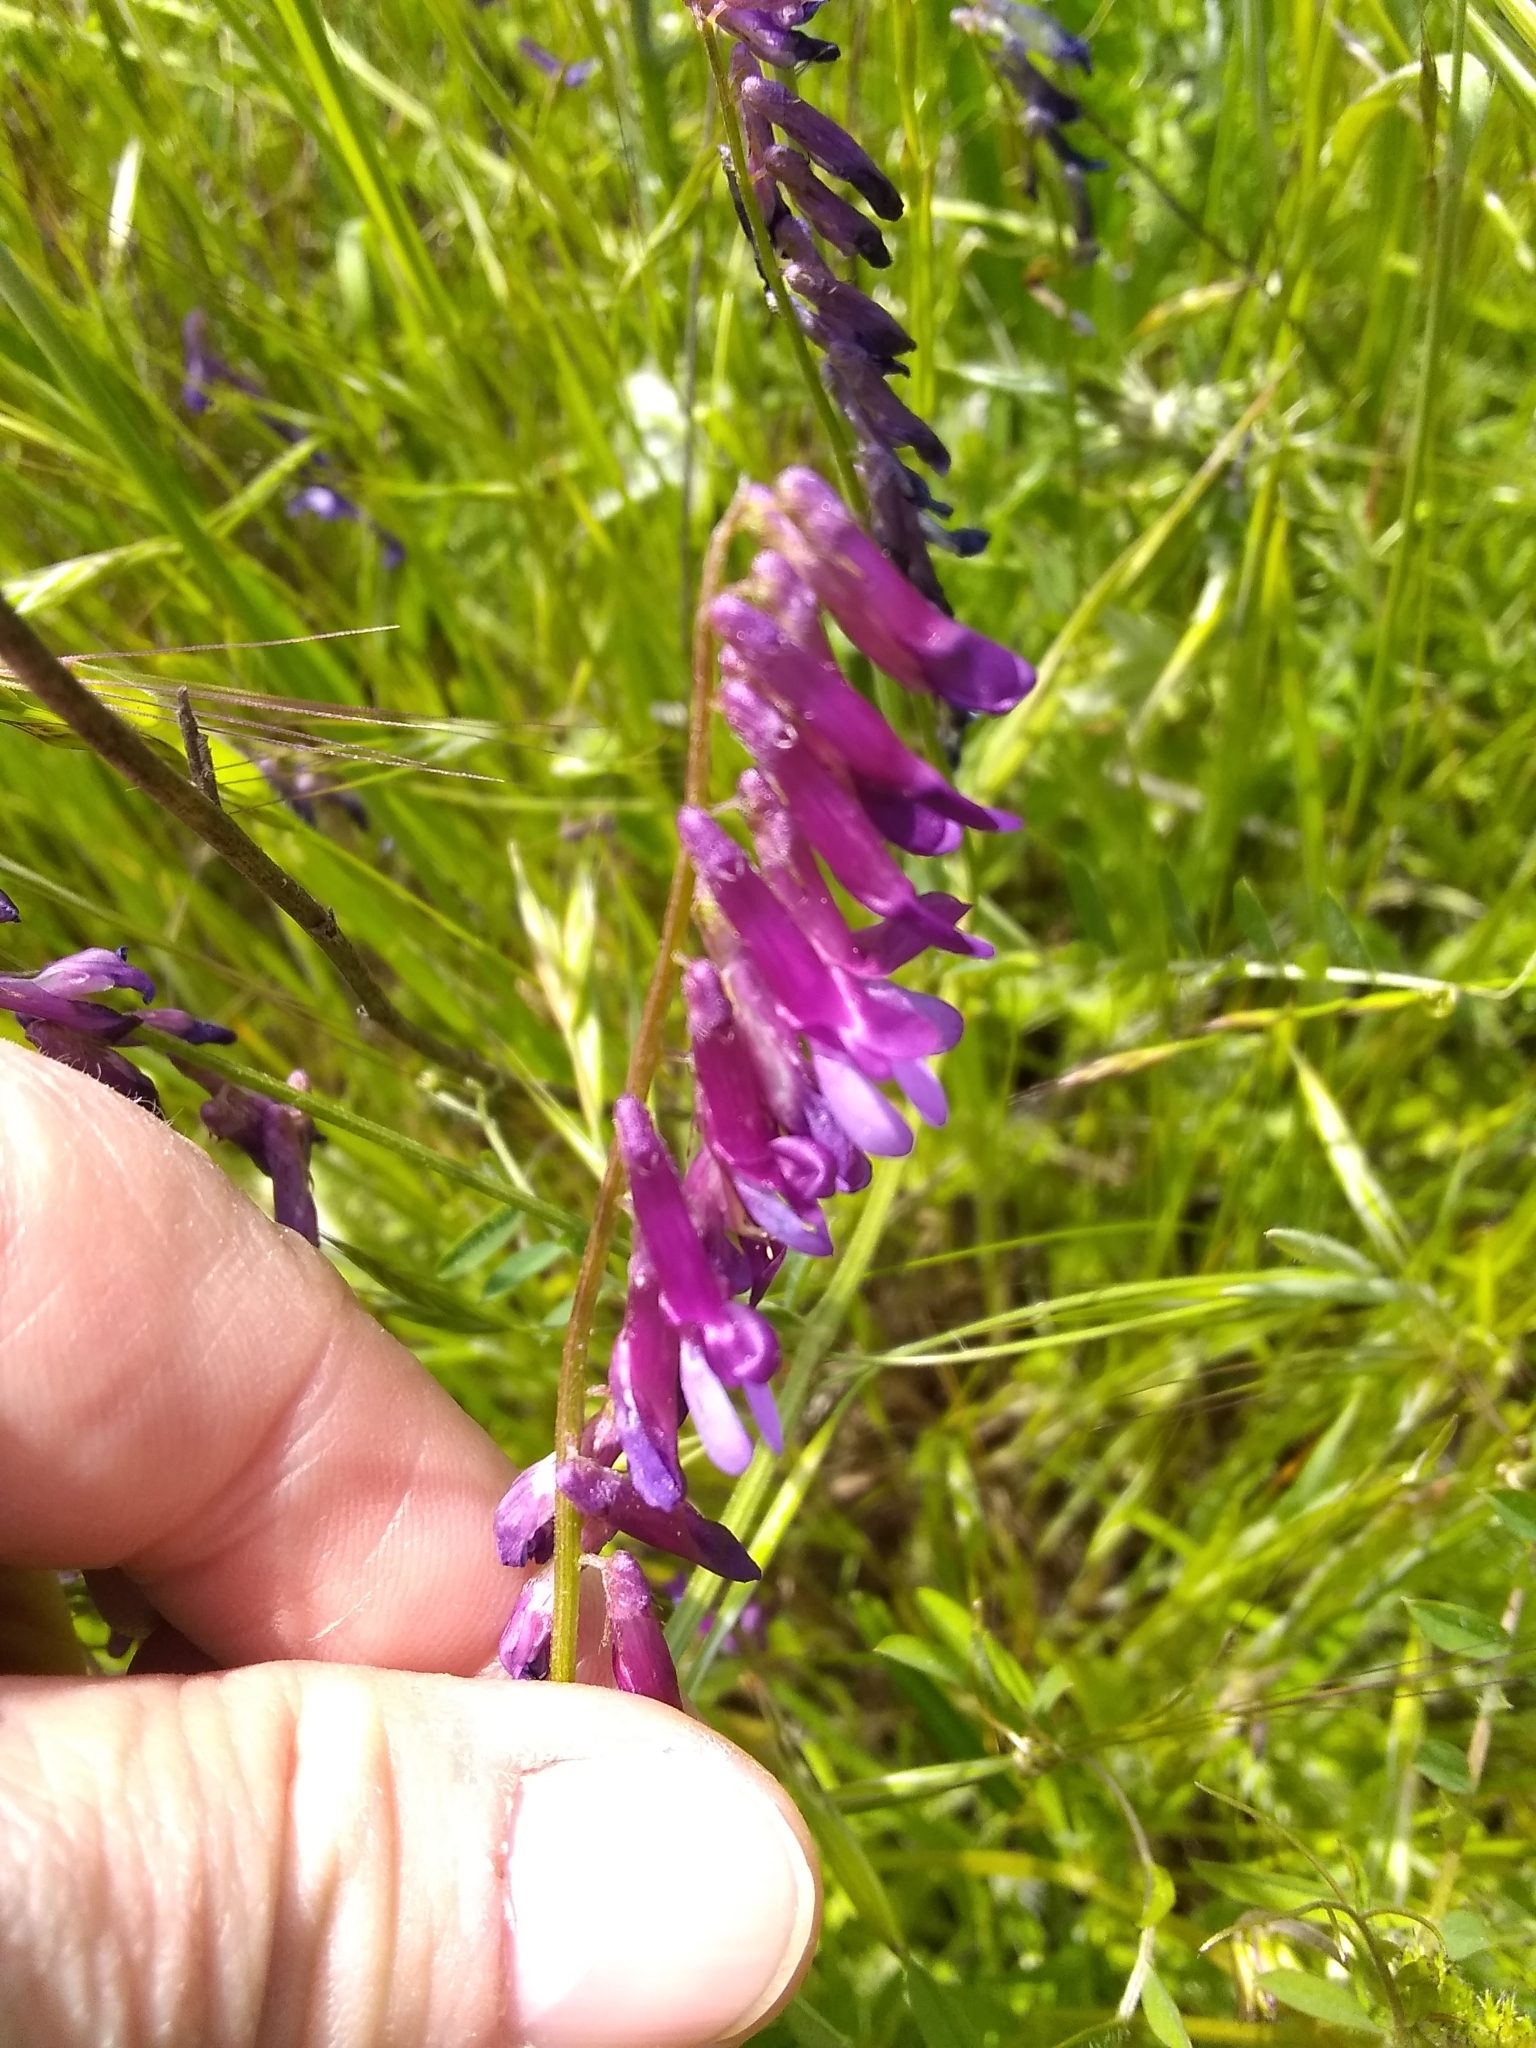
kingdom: Plantae
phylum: Tracheophyta
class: Magnoliopsida
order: Fabales
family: Fabaceae
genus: Vicia
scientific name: Vicia villosa
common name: Fodder vetch
